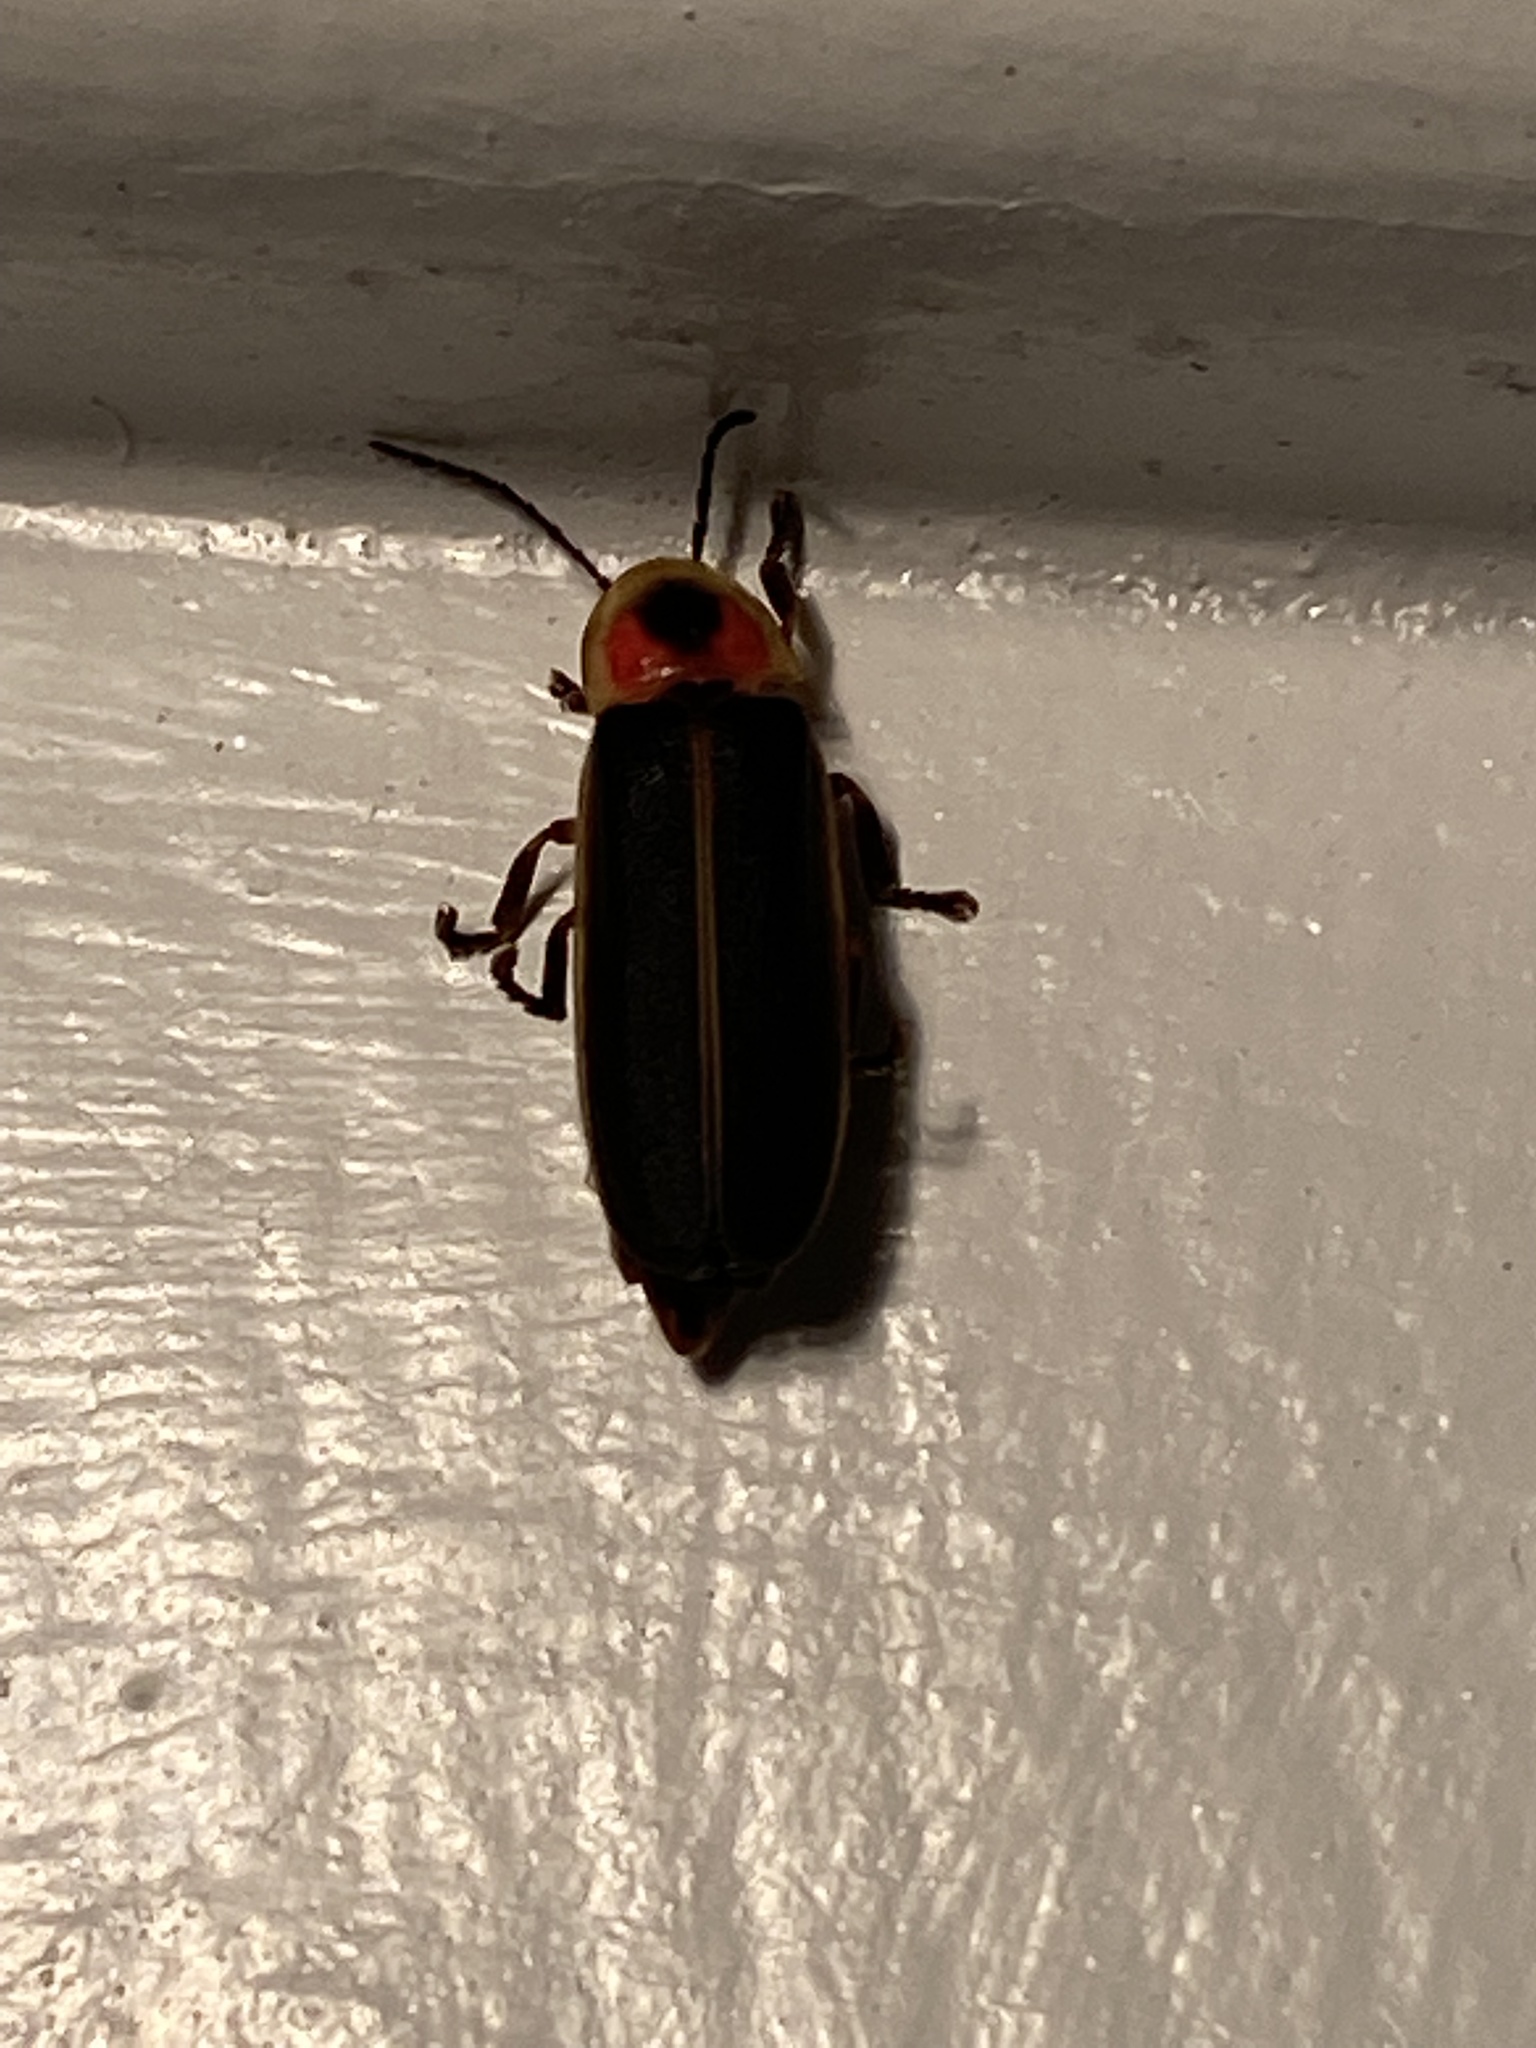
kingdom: Animalia
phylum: Arthropoda
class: Insecta
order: Coleoptera
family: Lampyridae
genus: Photinus
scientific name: Photinus pyralis
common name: Big dipper firefly
